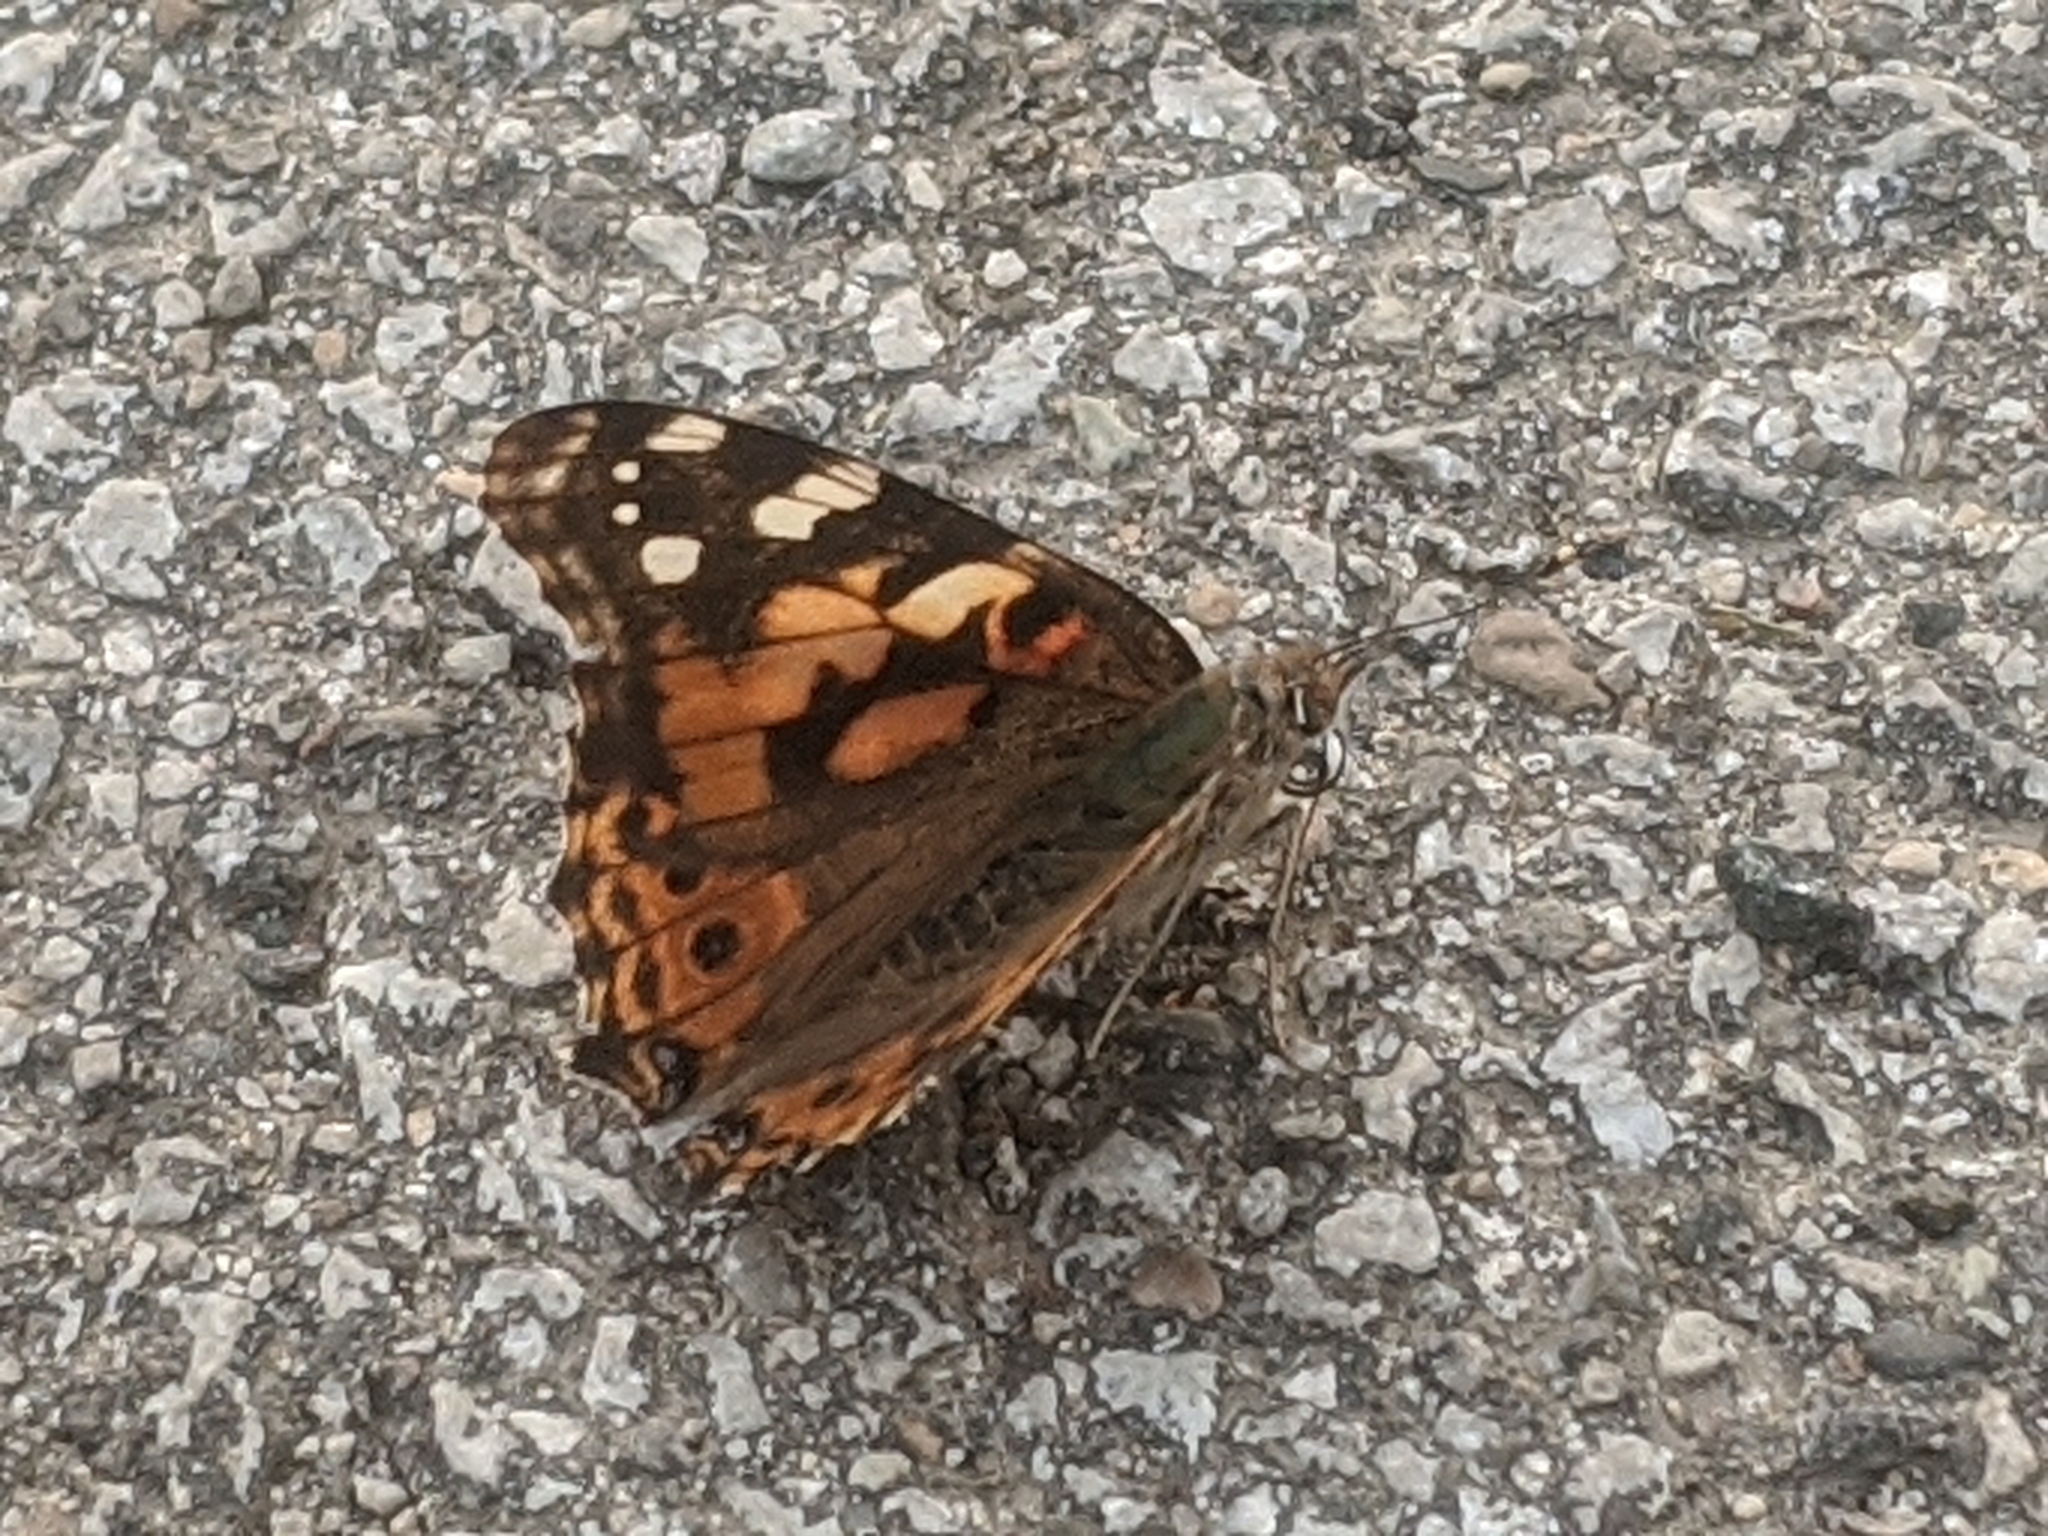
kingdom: Animalia
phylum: Arthropoda
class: Insecta
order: Lepidoptera
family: Nymphalidae
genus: Vanessa
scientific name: Vanessa cardui
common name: Painted lady
